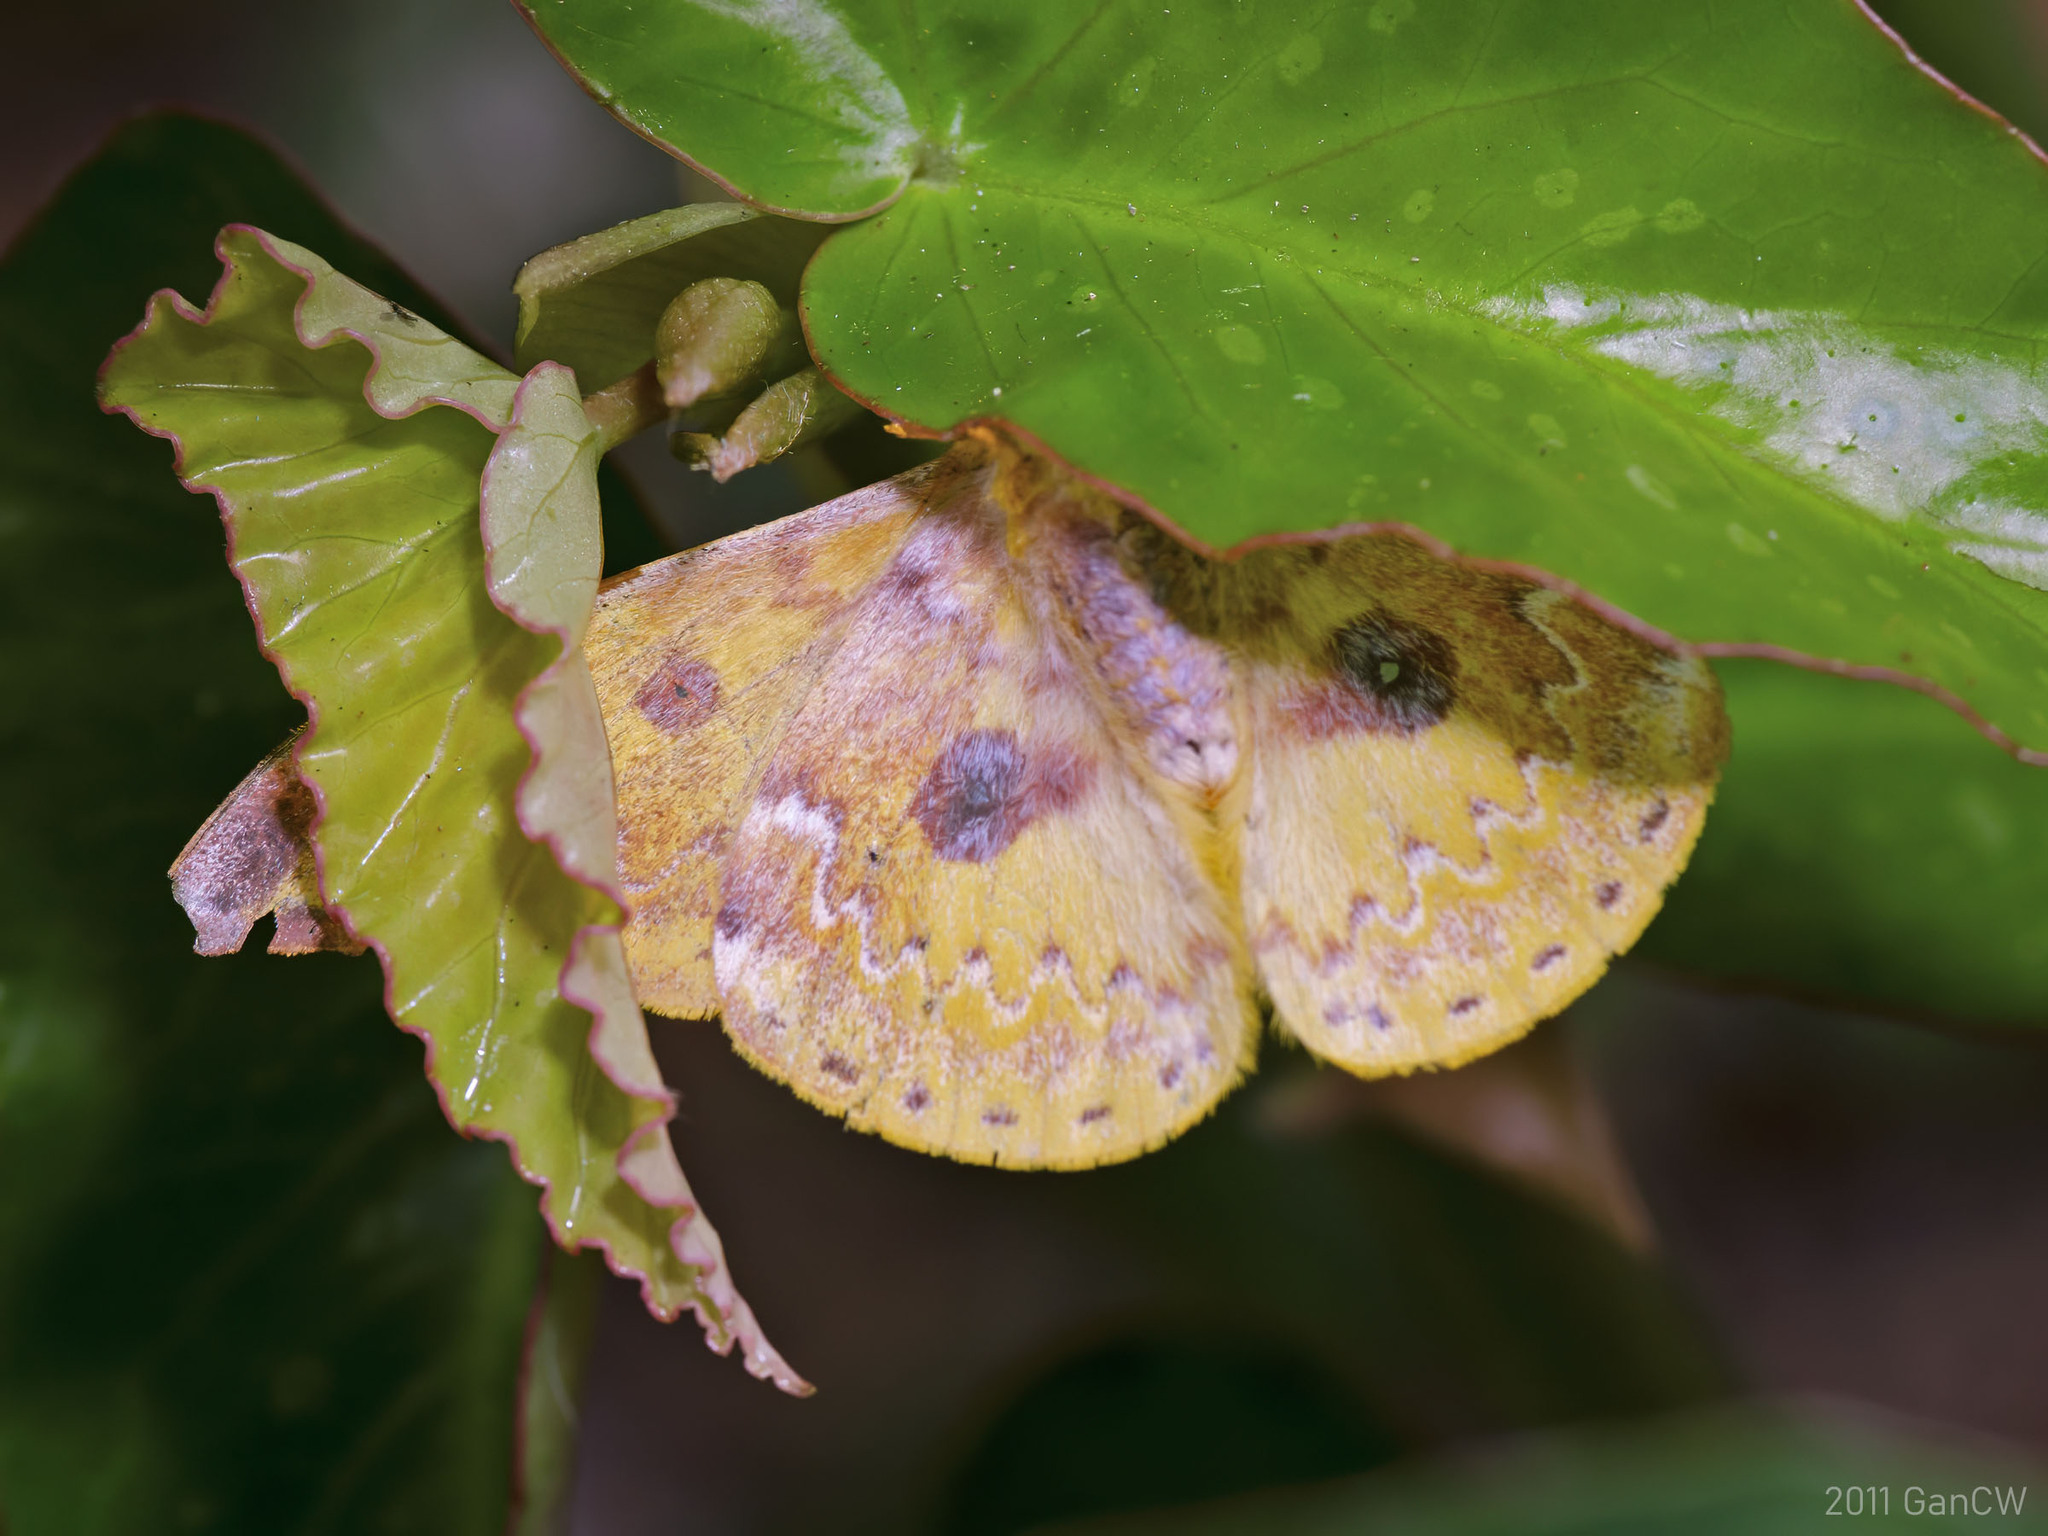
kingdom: Animalia
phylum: Arthropoda
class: Insecta
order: Lepidoptera
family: Saturniidae
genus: Lemaireia
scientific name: Lemaireia loepoides
